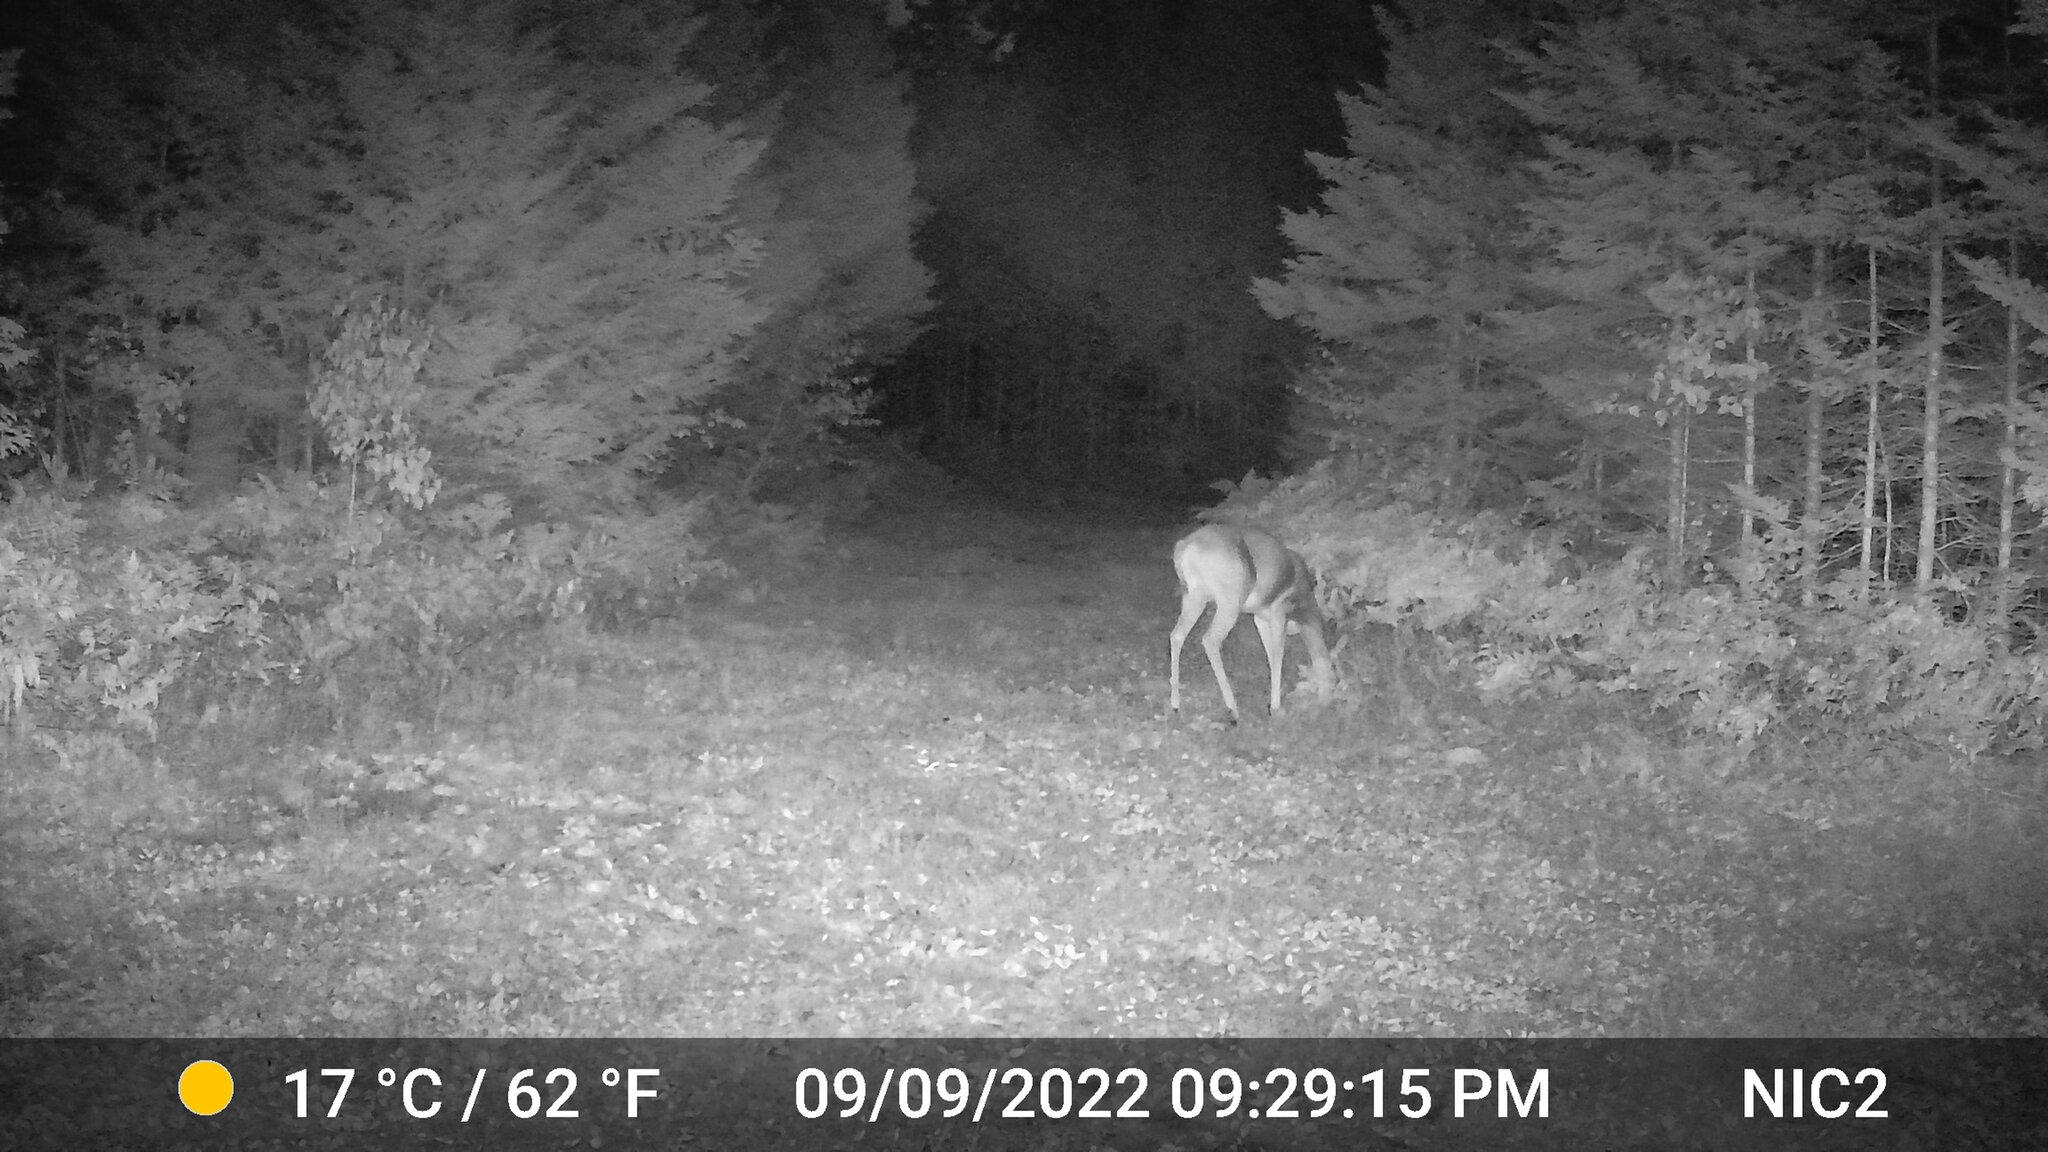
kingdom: Animalia
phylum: Chordata
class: Mammalia
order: Artiodactyla
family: Cervidae
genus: Odocoileus
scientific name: Odocoileus virginianus
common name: White-tailed deer
